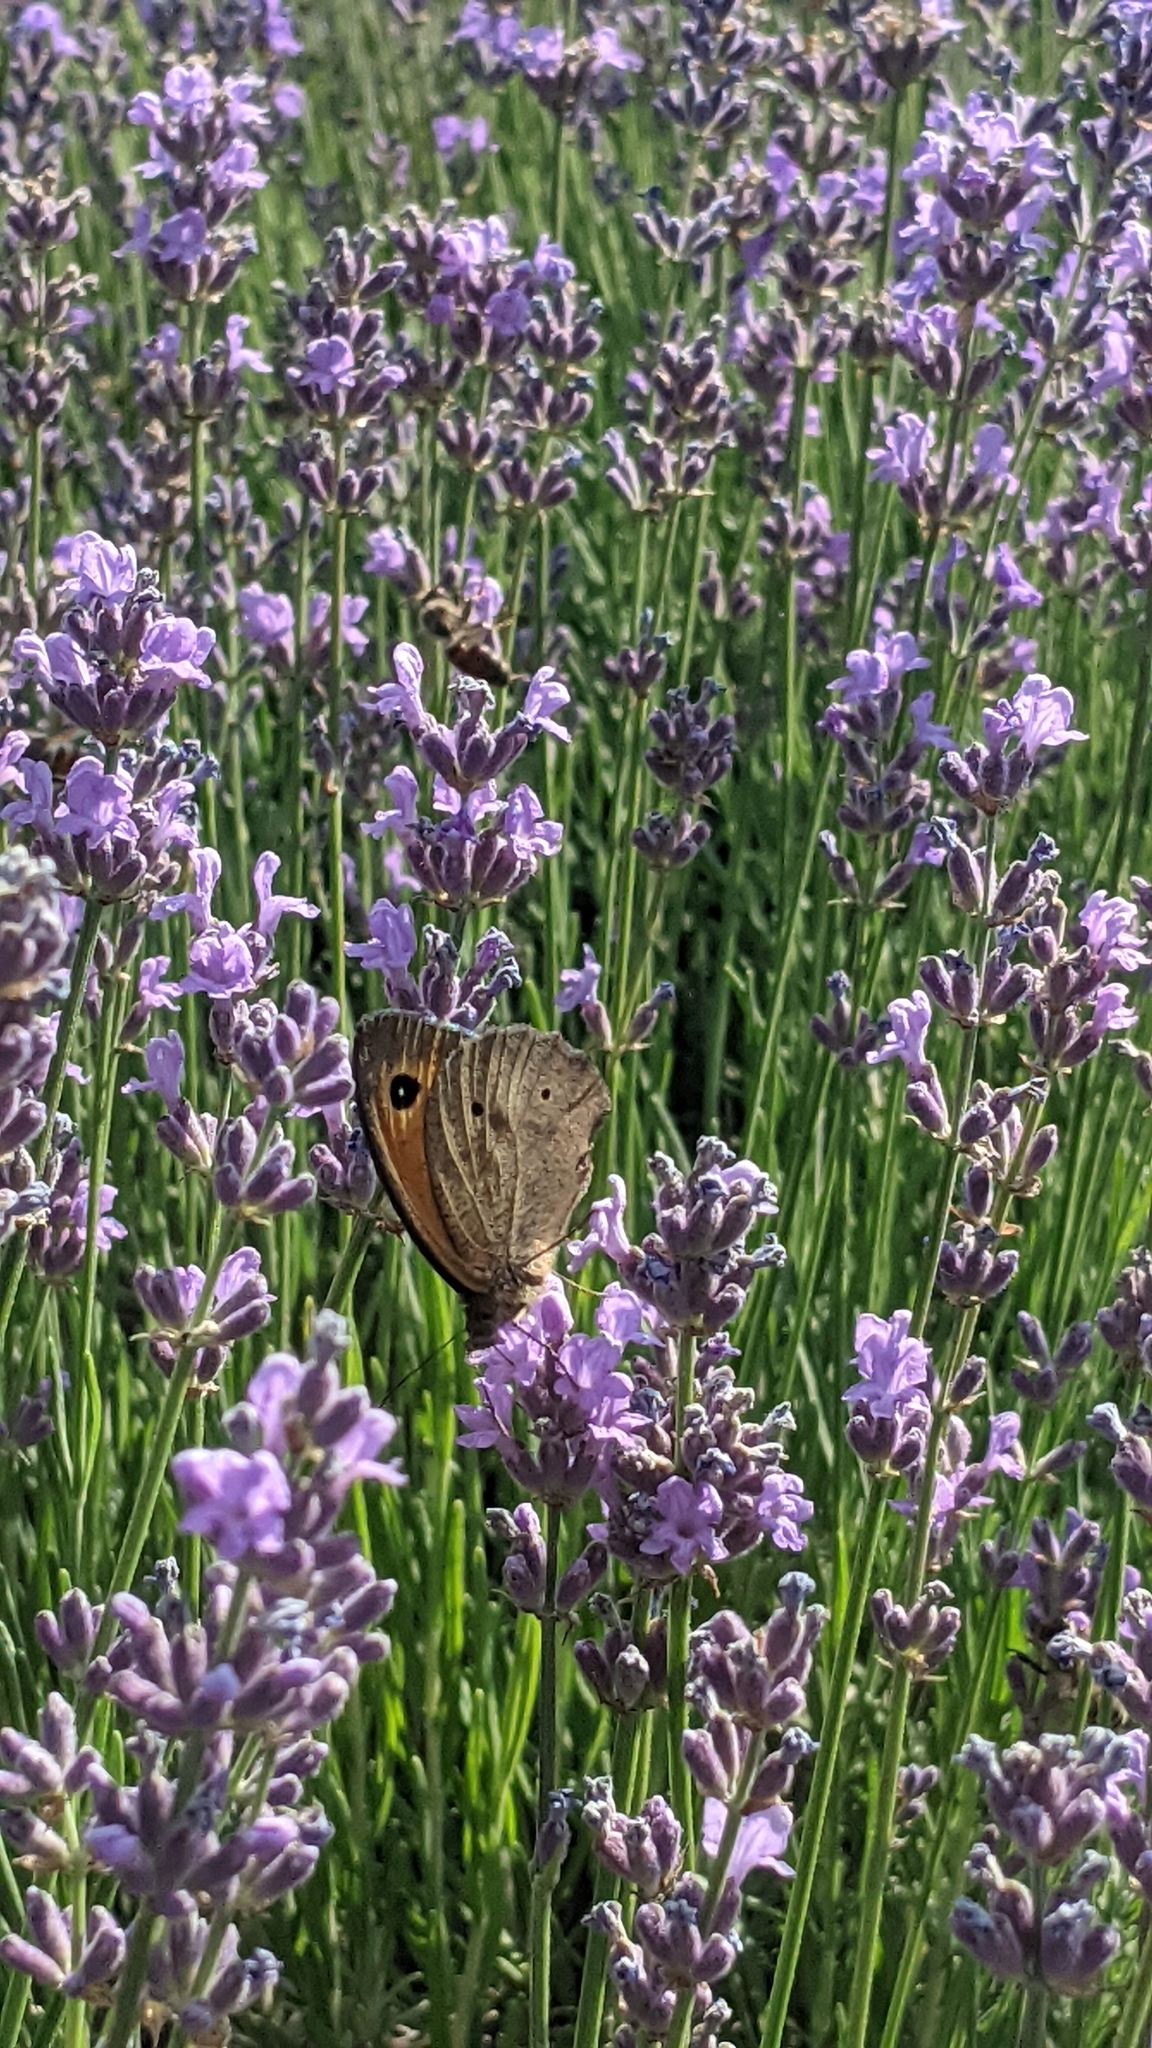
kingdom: Animalia
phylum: Arthropoda
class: Insecta
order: Lepidoptera
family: Nymphalidae
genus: Maniola
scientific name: Maniola jurtina
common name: Meadow brown
